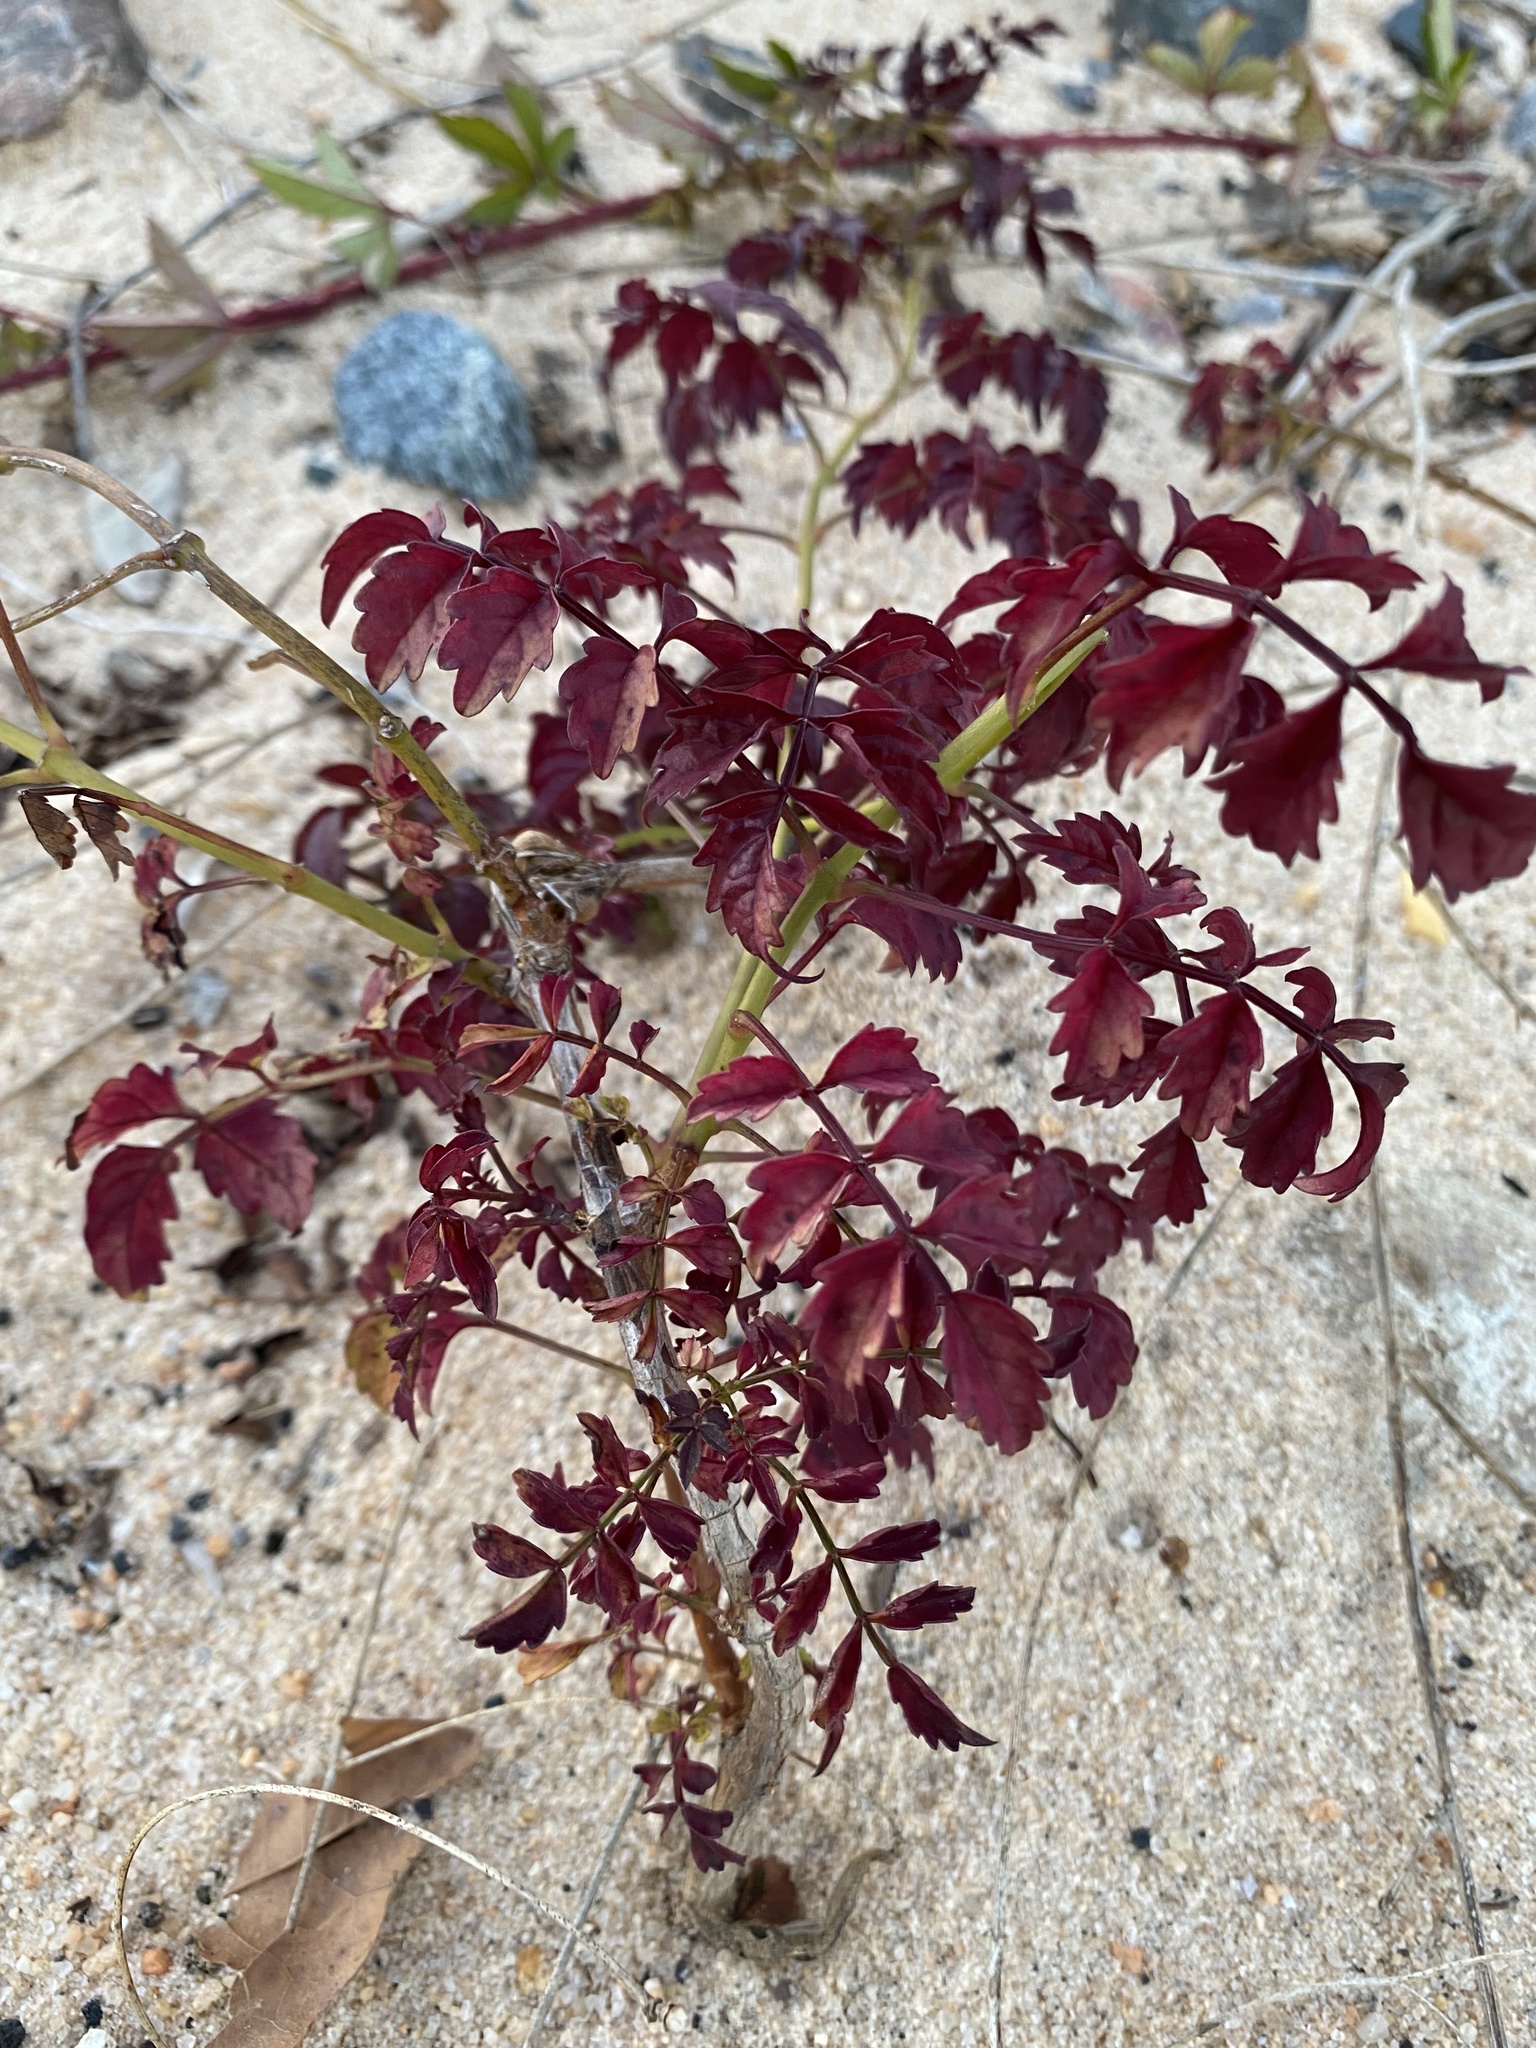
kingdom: Plantae
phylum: Tracheophyta
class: Magnoliopsida
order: Lamiales
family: Bignoniaceae
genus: Campsis
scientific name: Campsis radicans
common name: Trumpet-creeper
